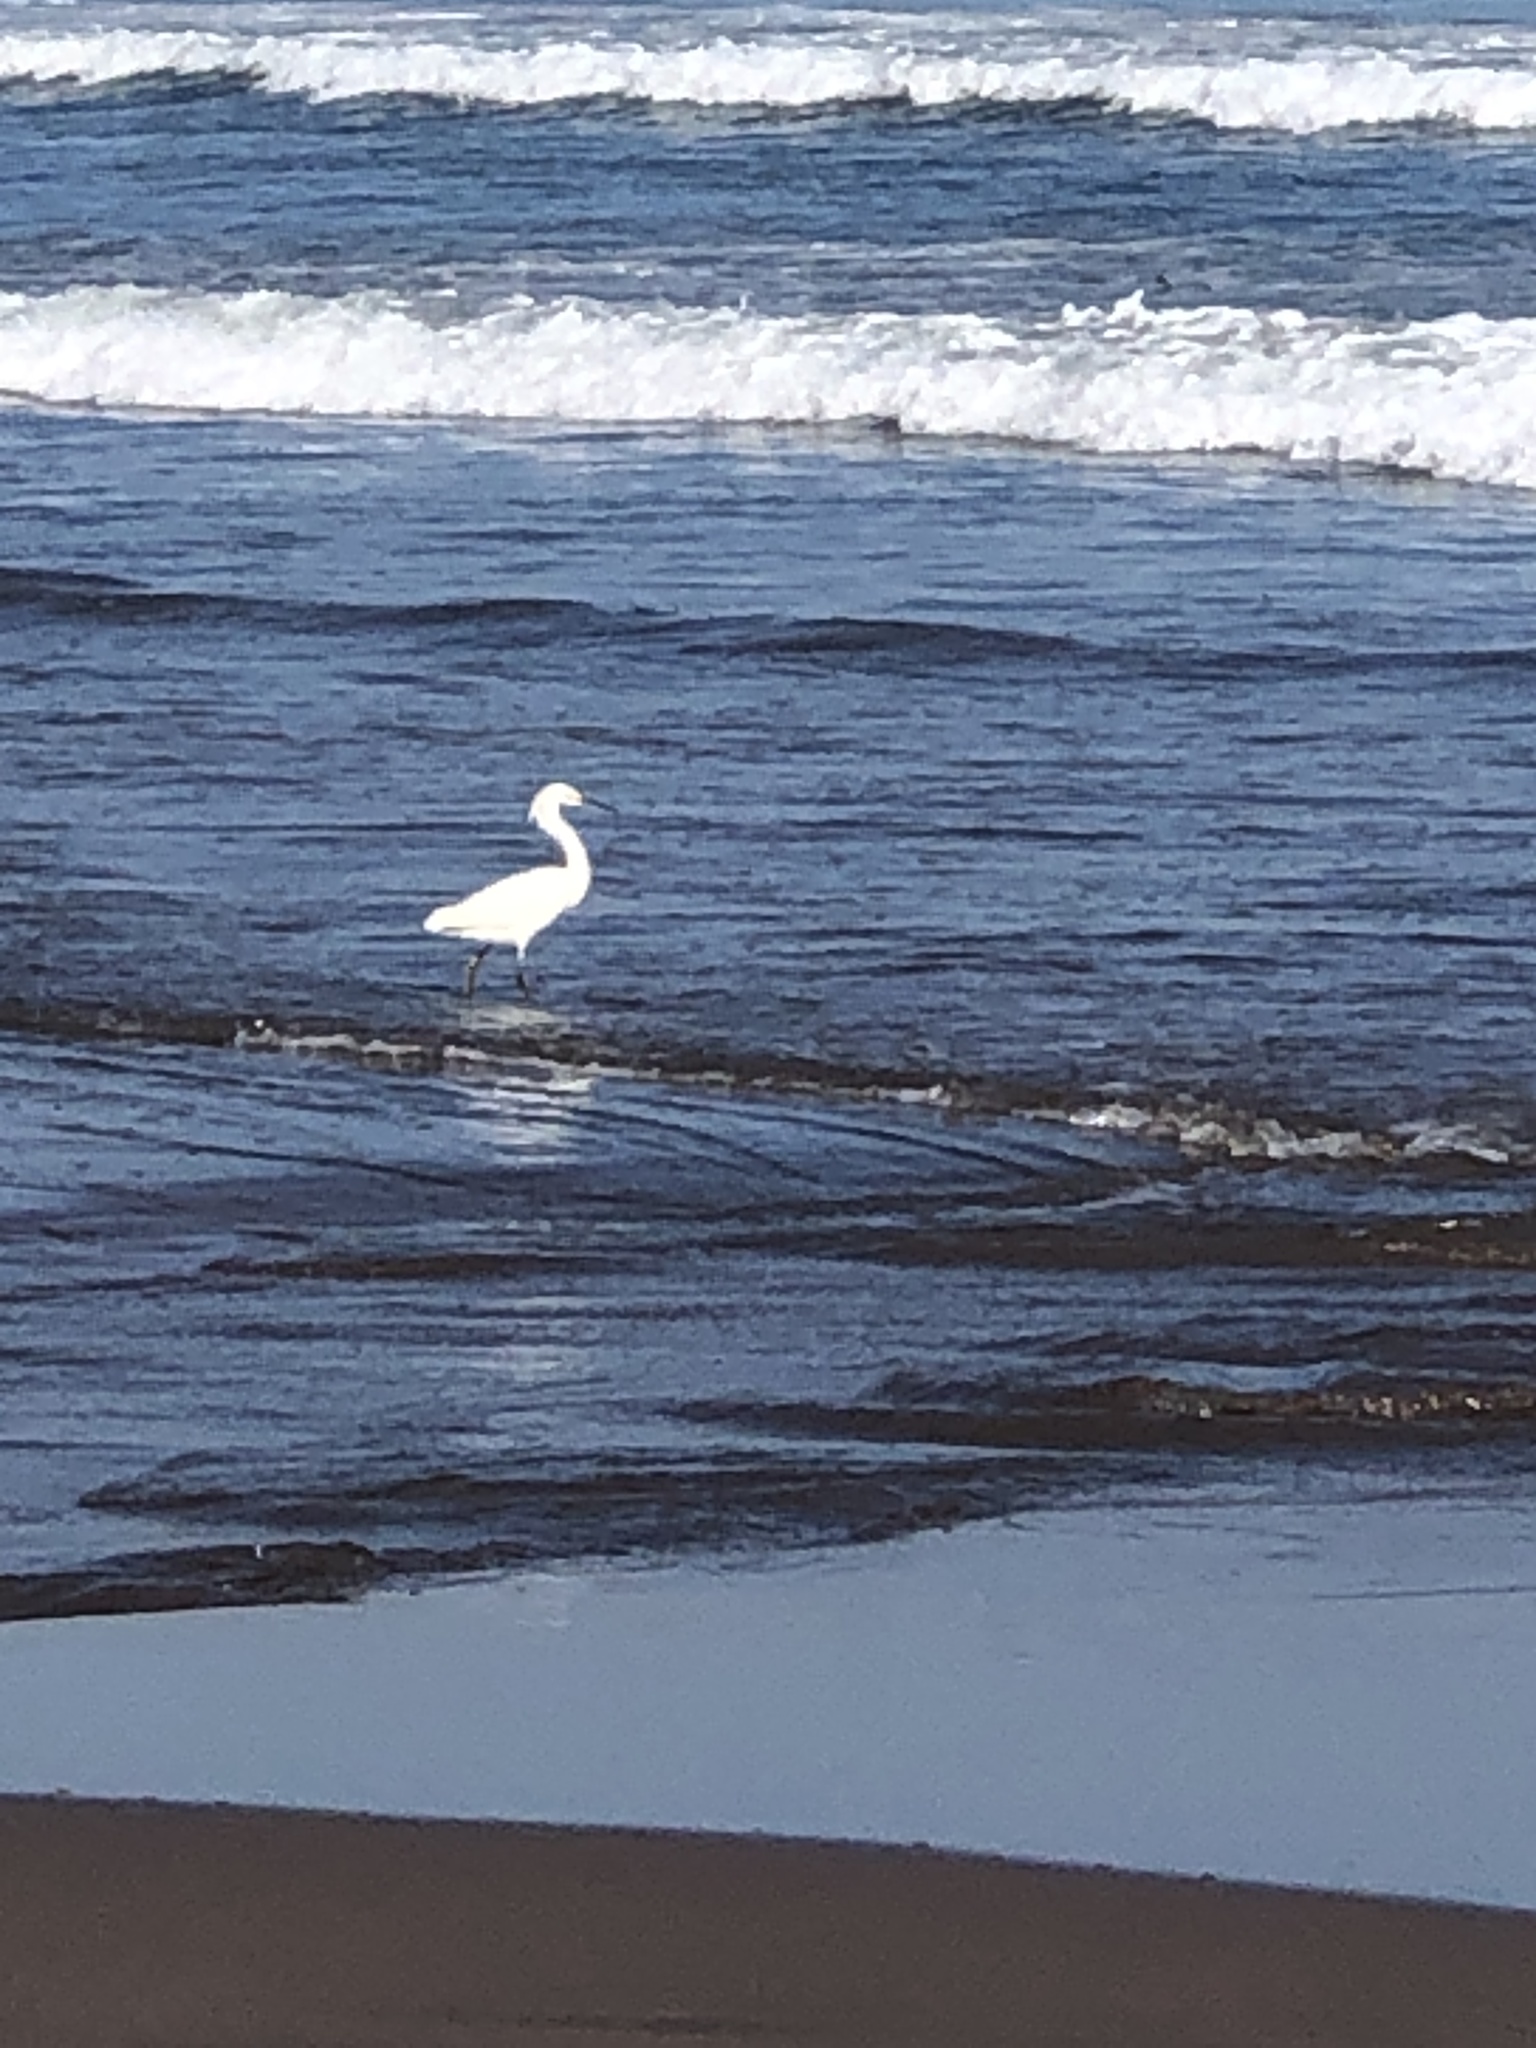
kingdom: Animalia
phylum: Chordata
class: Aves
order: Pelecaniformes
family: Ardeidae
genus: Egretta
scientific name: Egretta thula
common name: Snowy egret
